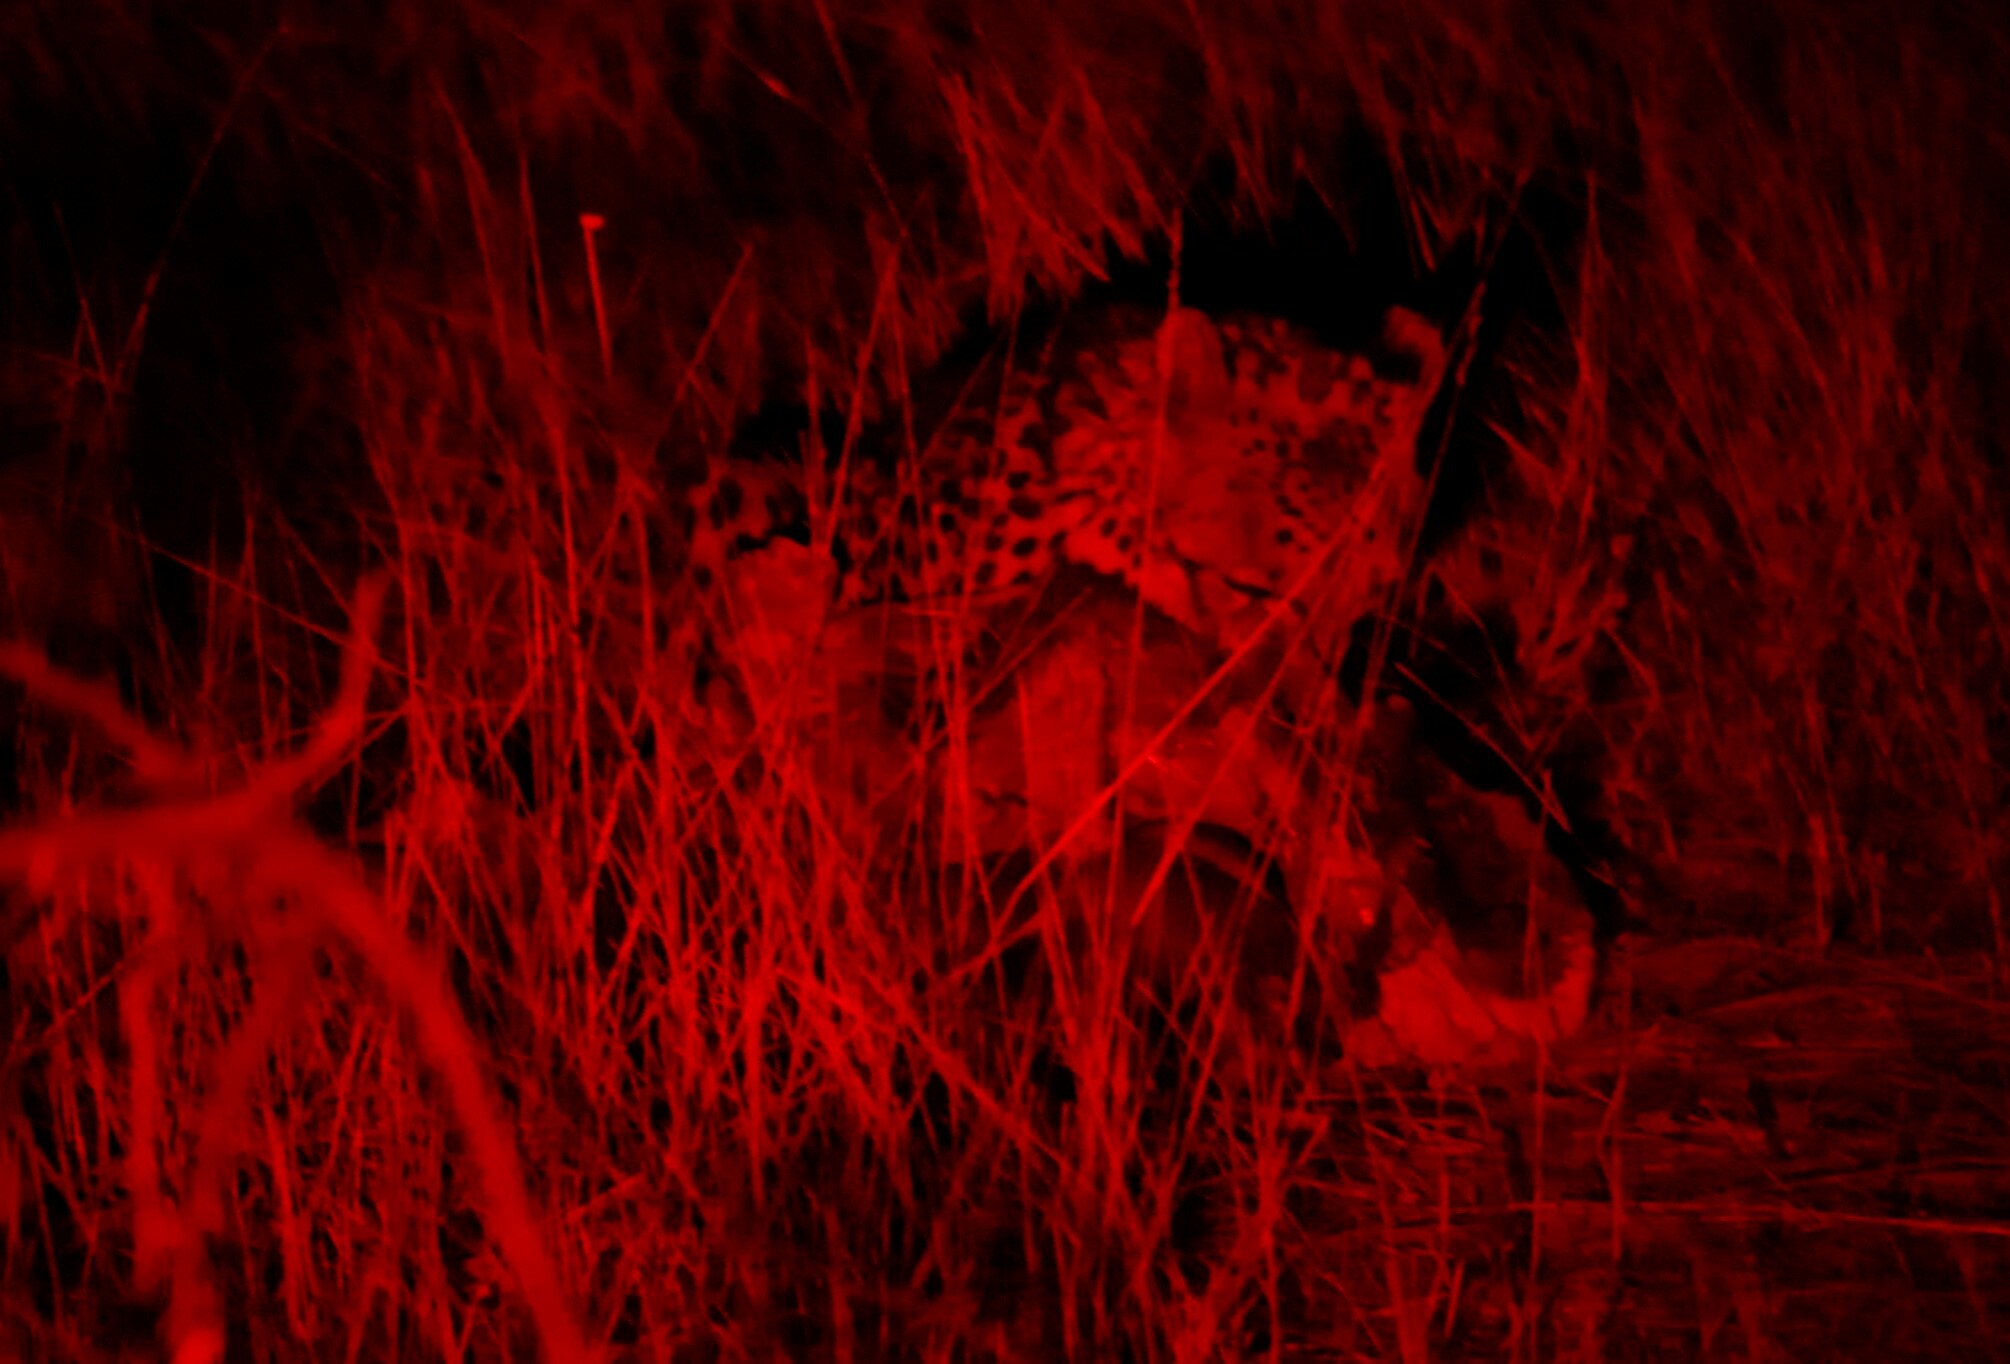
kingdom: Animalia
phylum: Chordata
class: Mammalia
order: Carnivora
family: Felidae
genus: Acinonyx
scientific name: Acinonyx jubatus
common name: Cheetah
